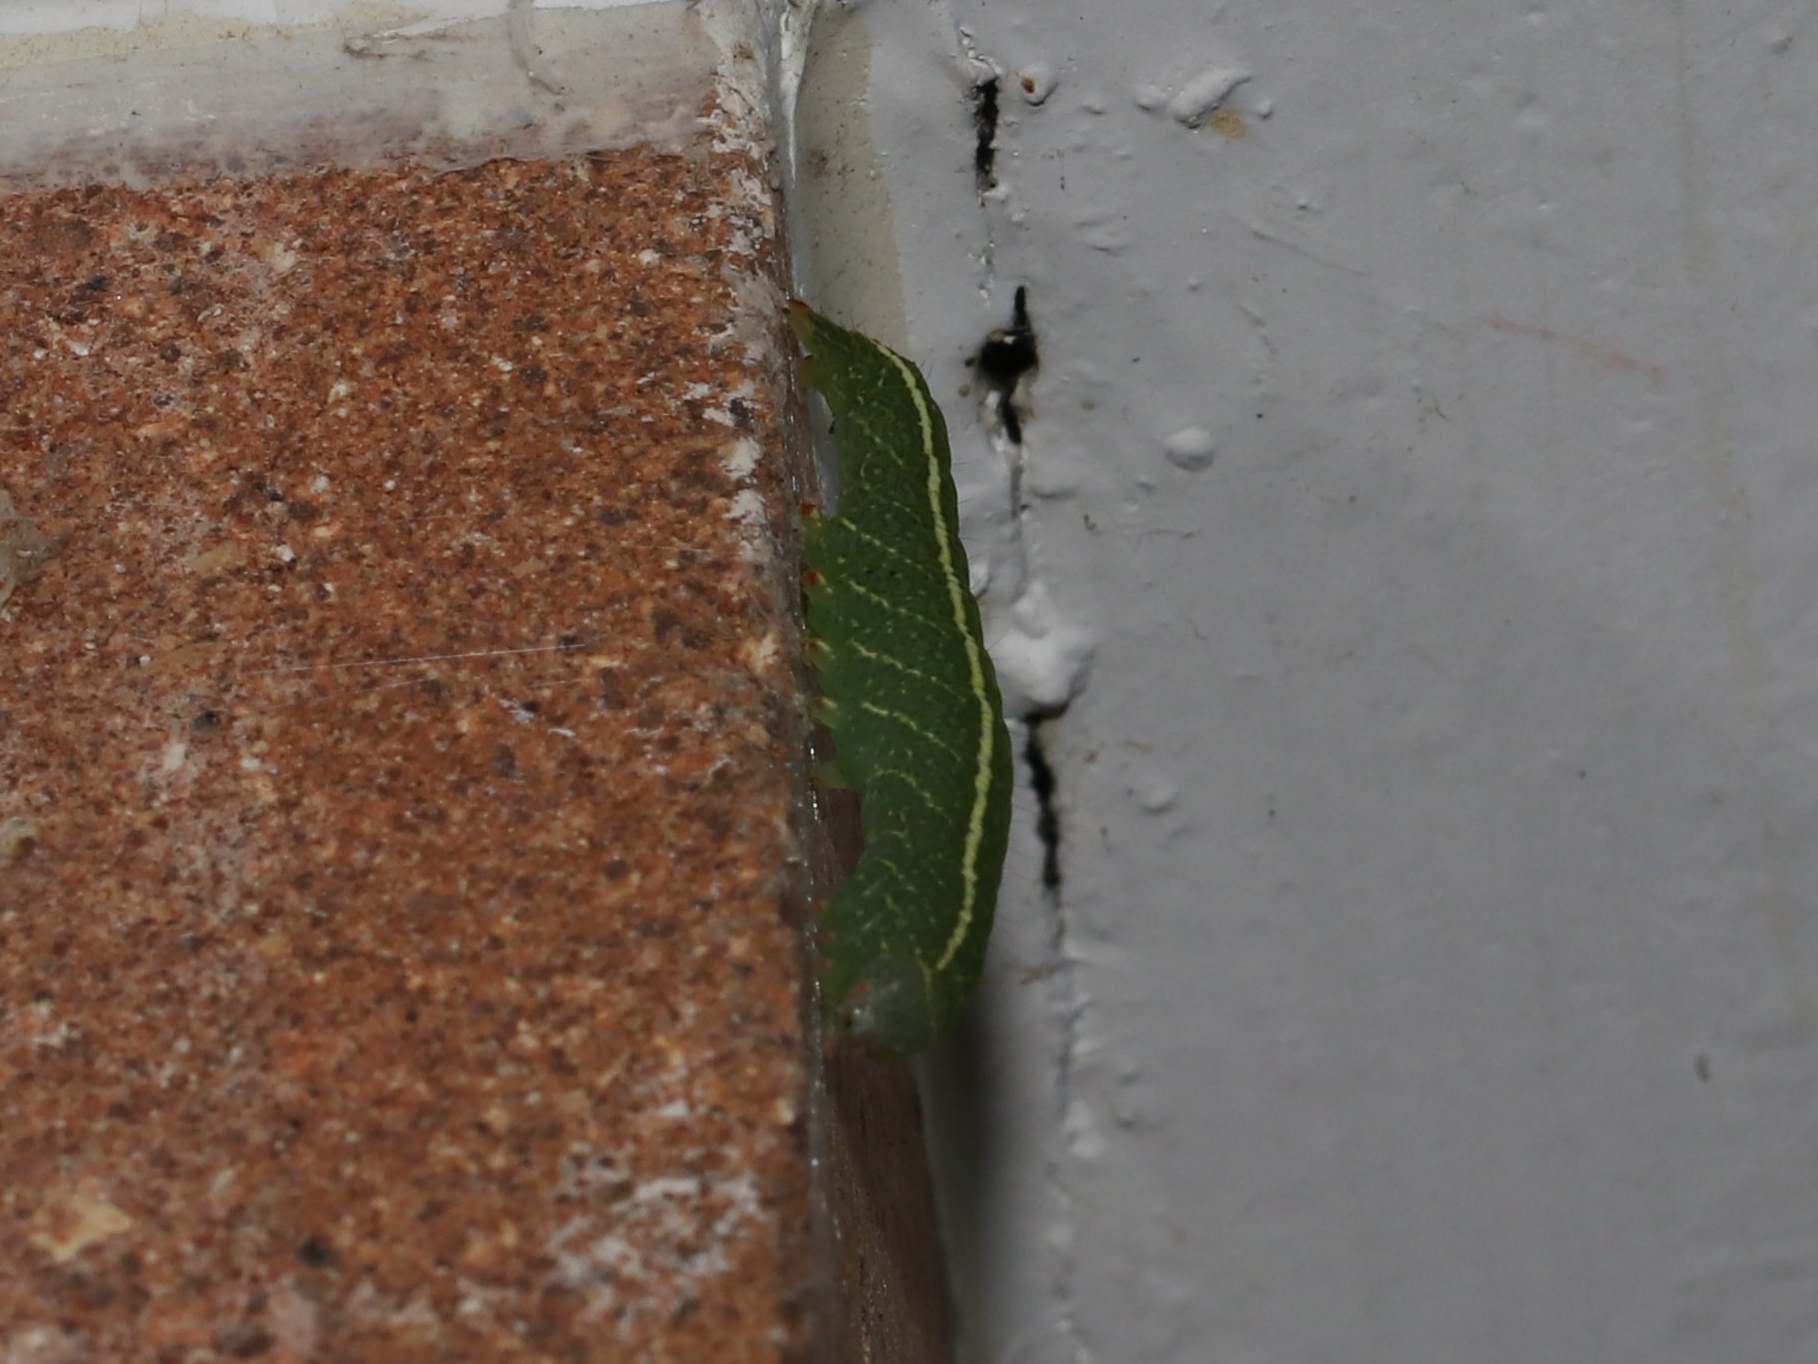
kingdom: Animalia
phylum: Arthropoda
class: Insecta
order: Lepidoptera
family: Erebidae
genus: Panopoda
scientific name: Panopoda rufimargo
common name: Red-lined panopoda moth
